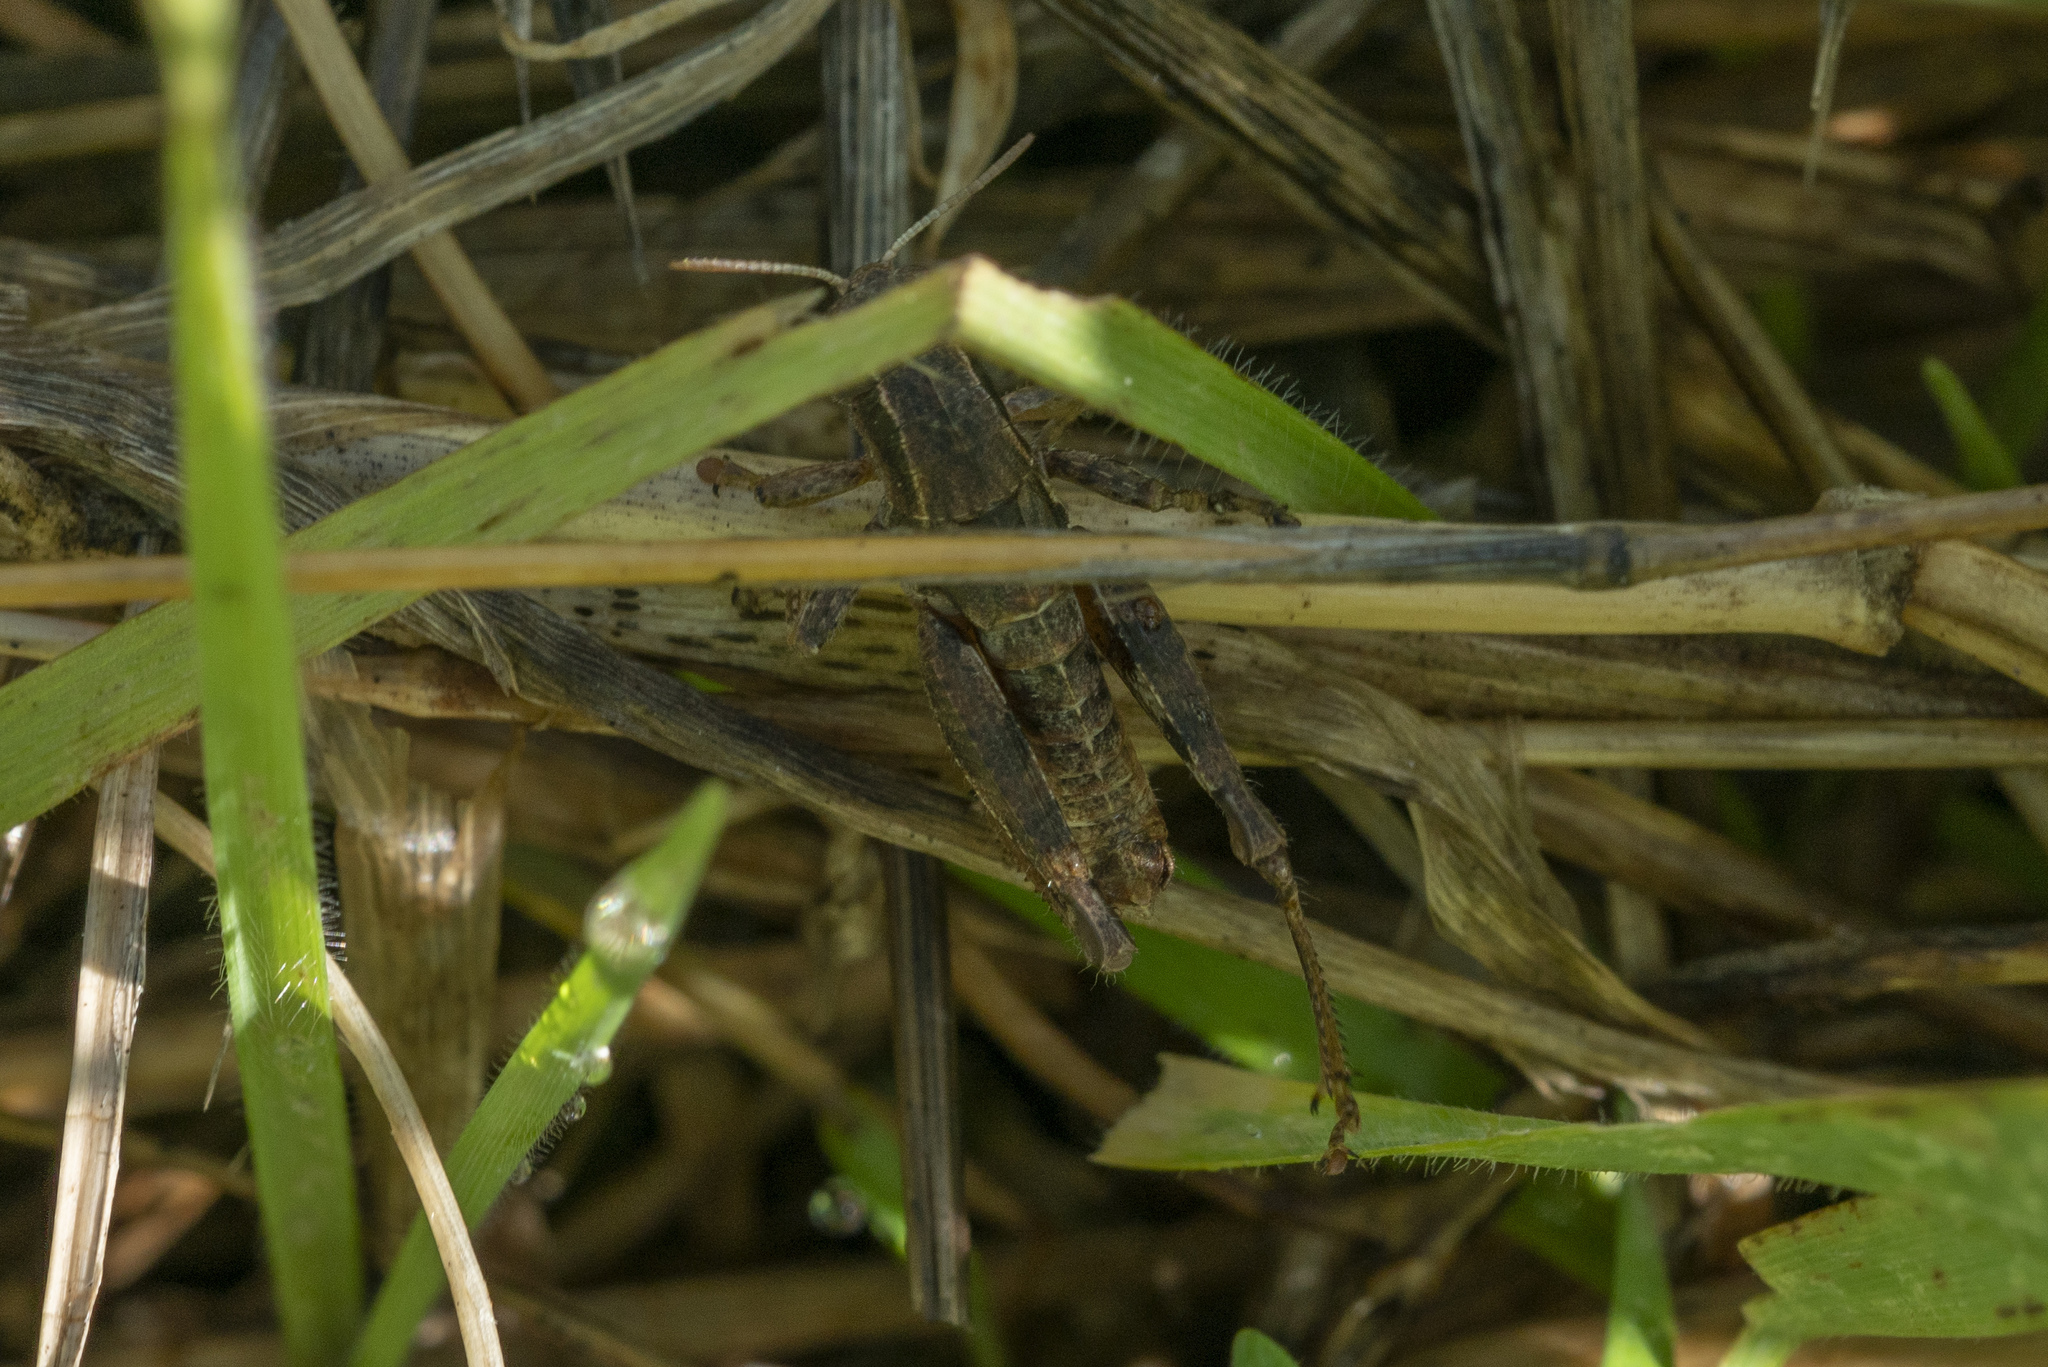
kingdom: Animalia
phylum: Arthropoda
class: Insecta
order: Orthoptera
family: Acrididae
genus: Pezotettix
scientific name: Pezotettix lagoi
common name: Rhodes maquis grasshopper
